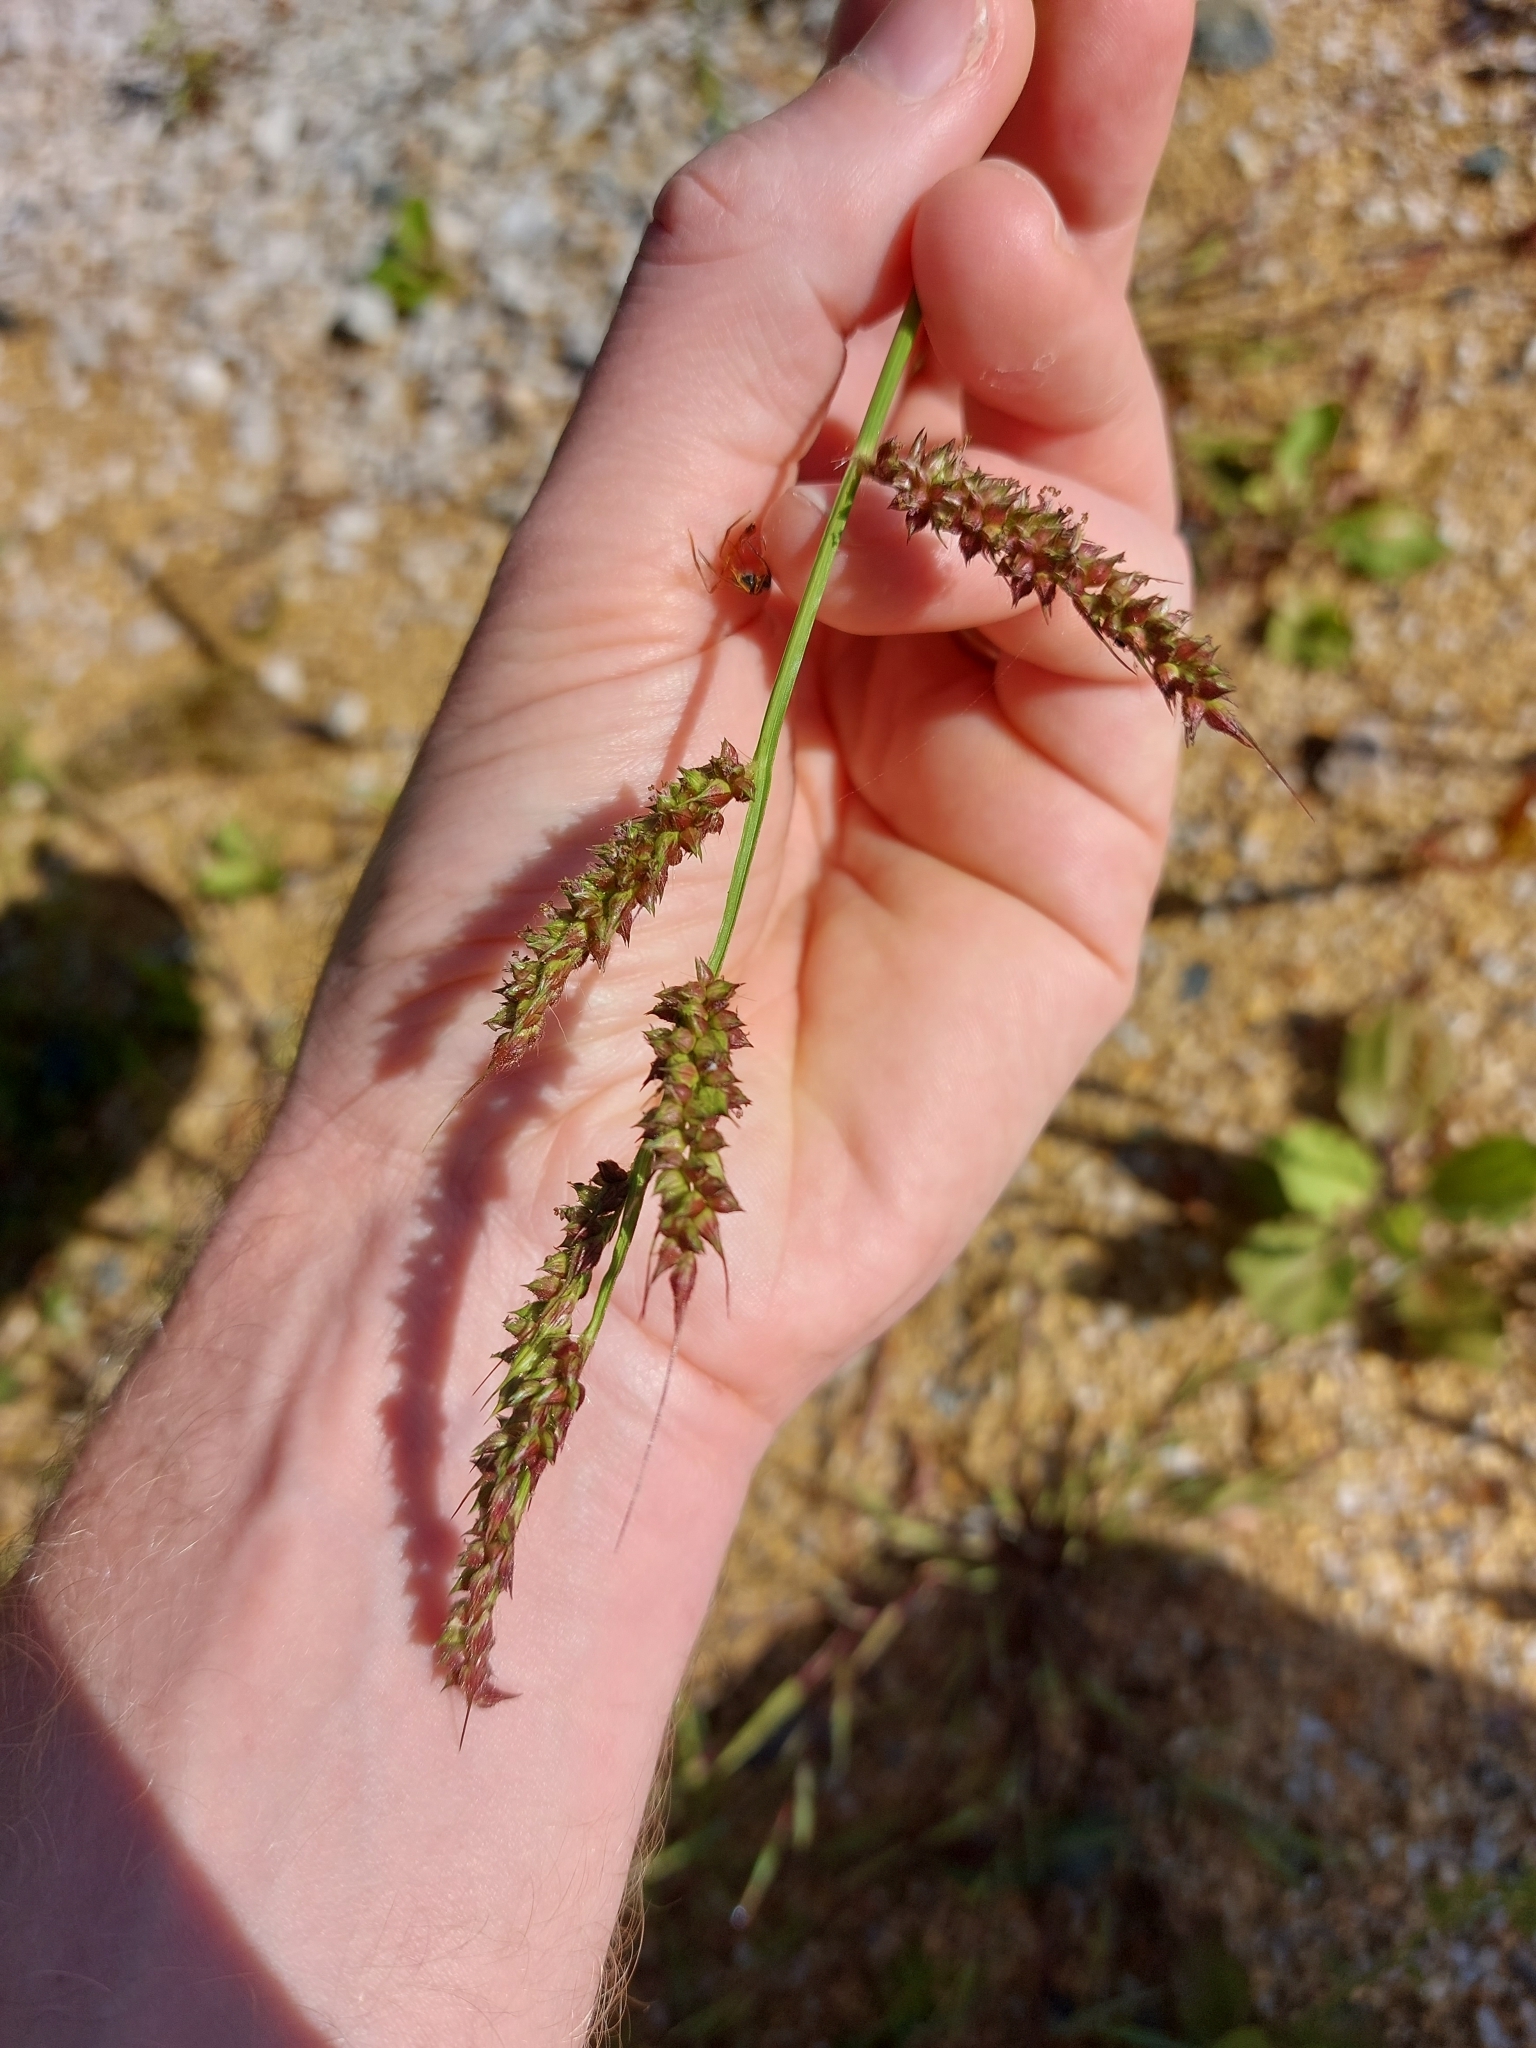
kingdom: Plantae
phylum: Tracheophyta
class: Liliopsida
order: Poales
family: Poaceae
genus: Echinochloa
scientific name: Echinochloa crus-galli
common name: Cockspur
